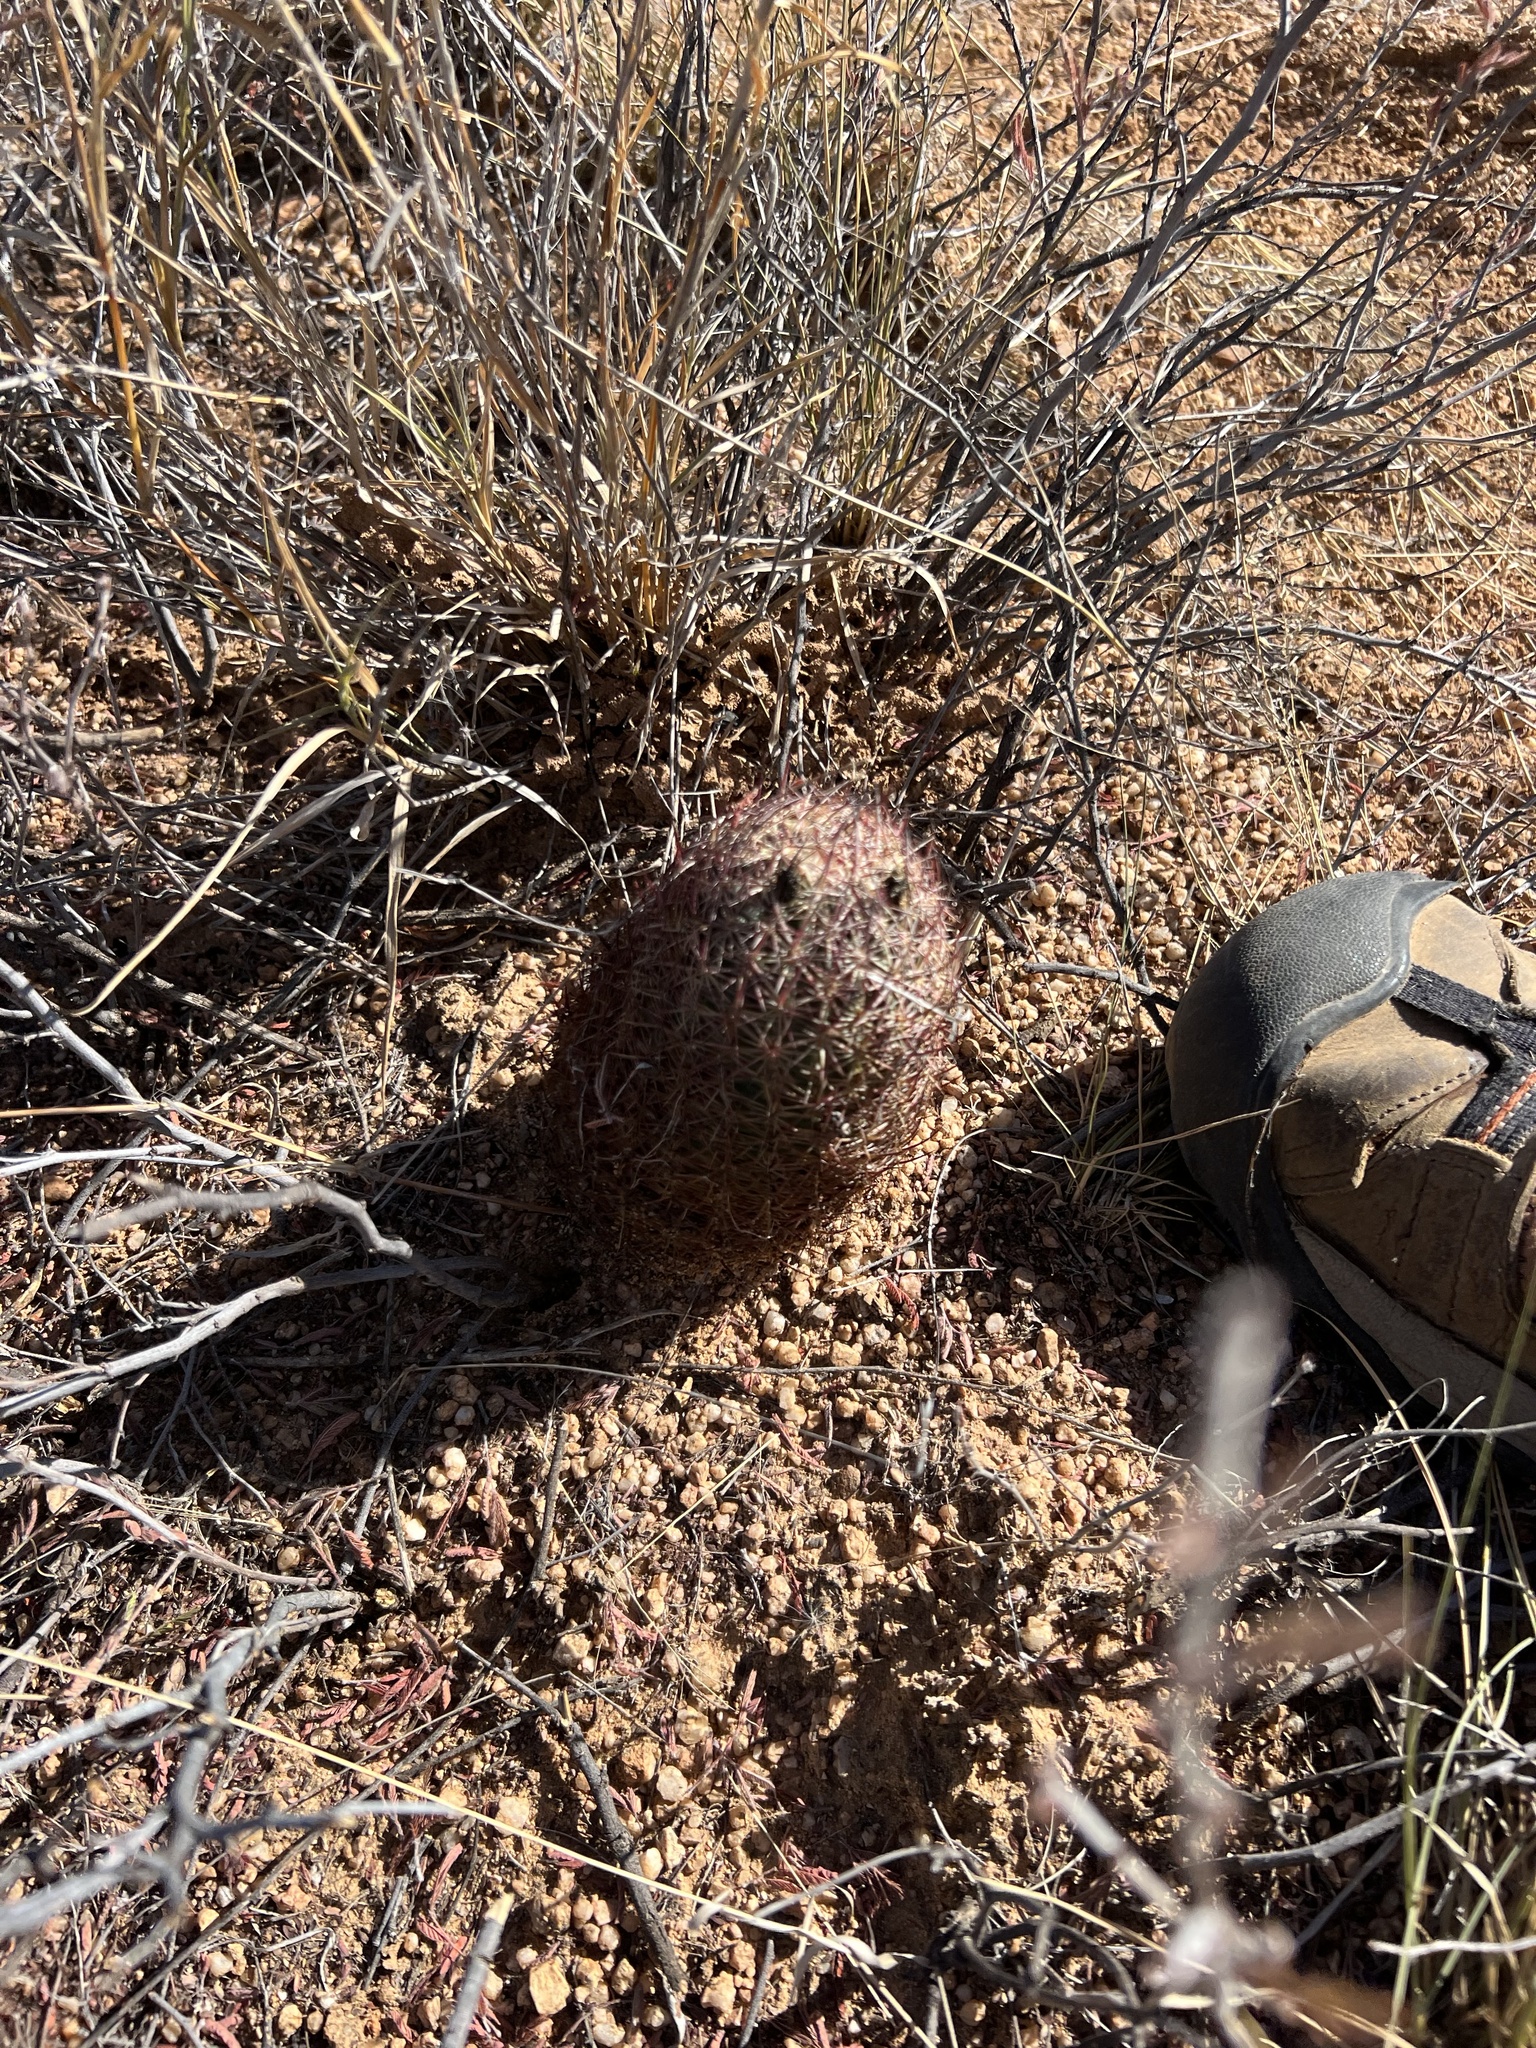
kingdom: Plantae
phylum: Tracheophyta
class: Magnoliopsida
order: Caryophyllales
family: Cactaceae
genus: Sclerocactus
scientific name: Sclerocactus johnsonii
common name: Eight-spine fishhook cactus
